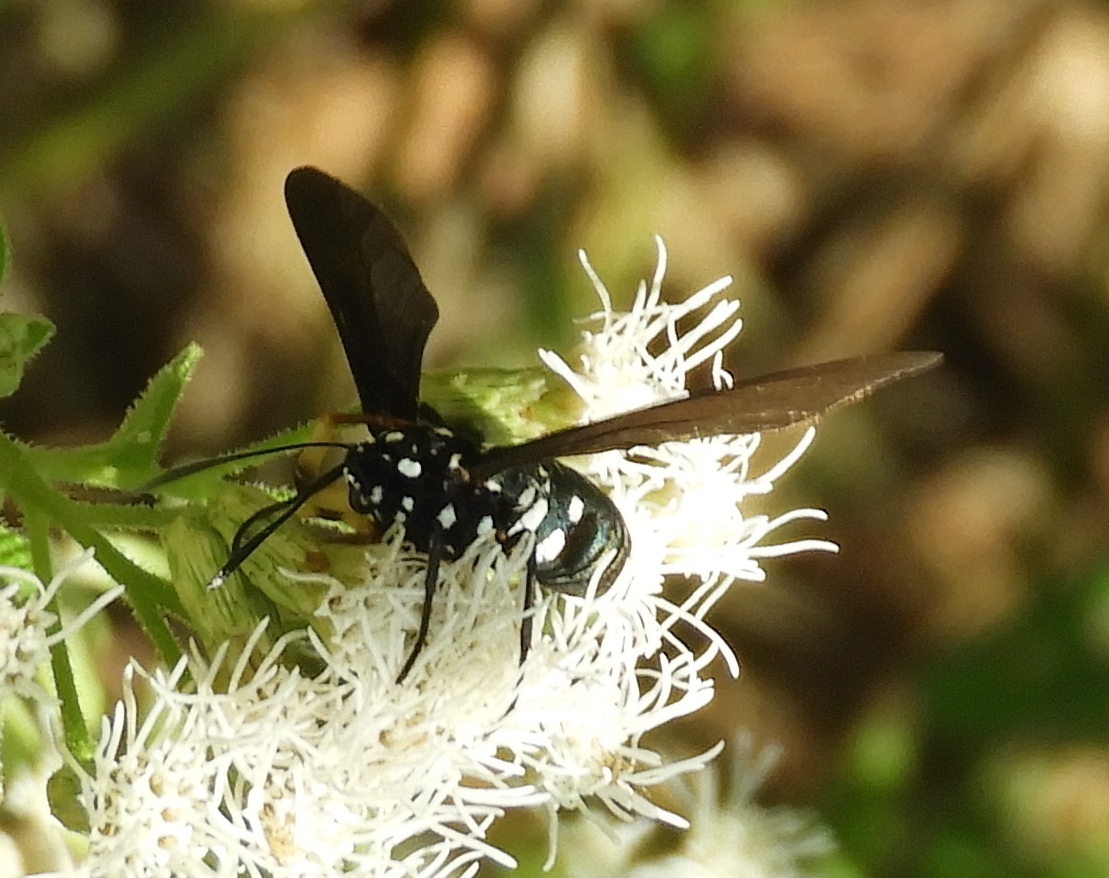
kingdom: Animalia
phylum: Arthropoda
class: Insecta
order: Lepidoptera
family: Erebidae
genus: Horama
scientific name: Horama plumipes
